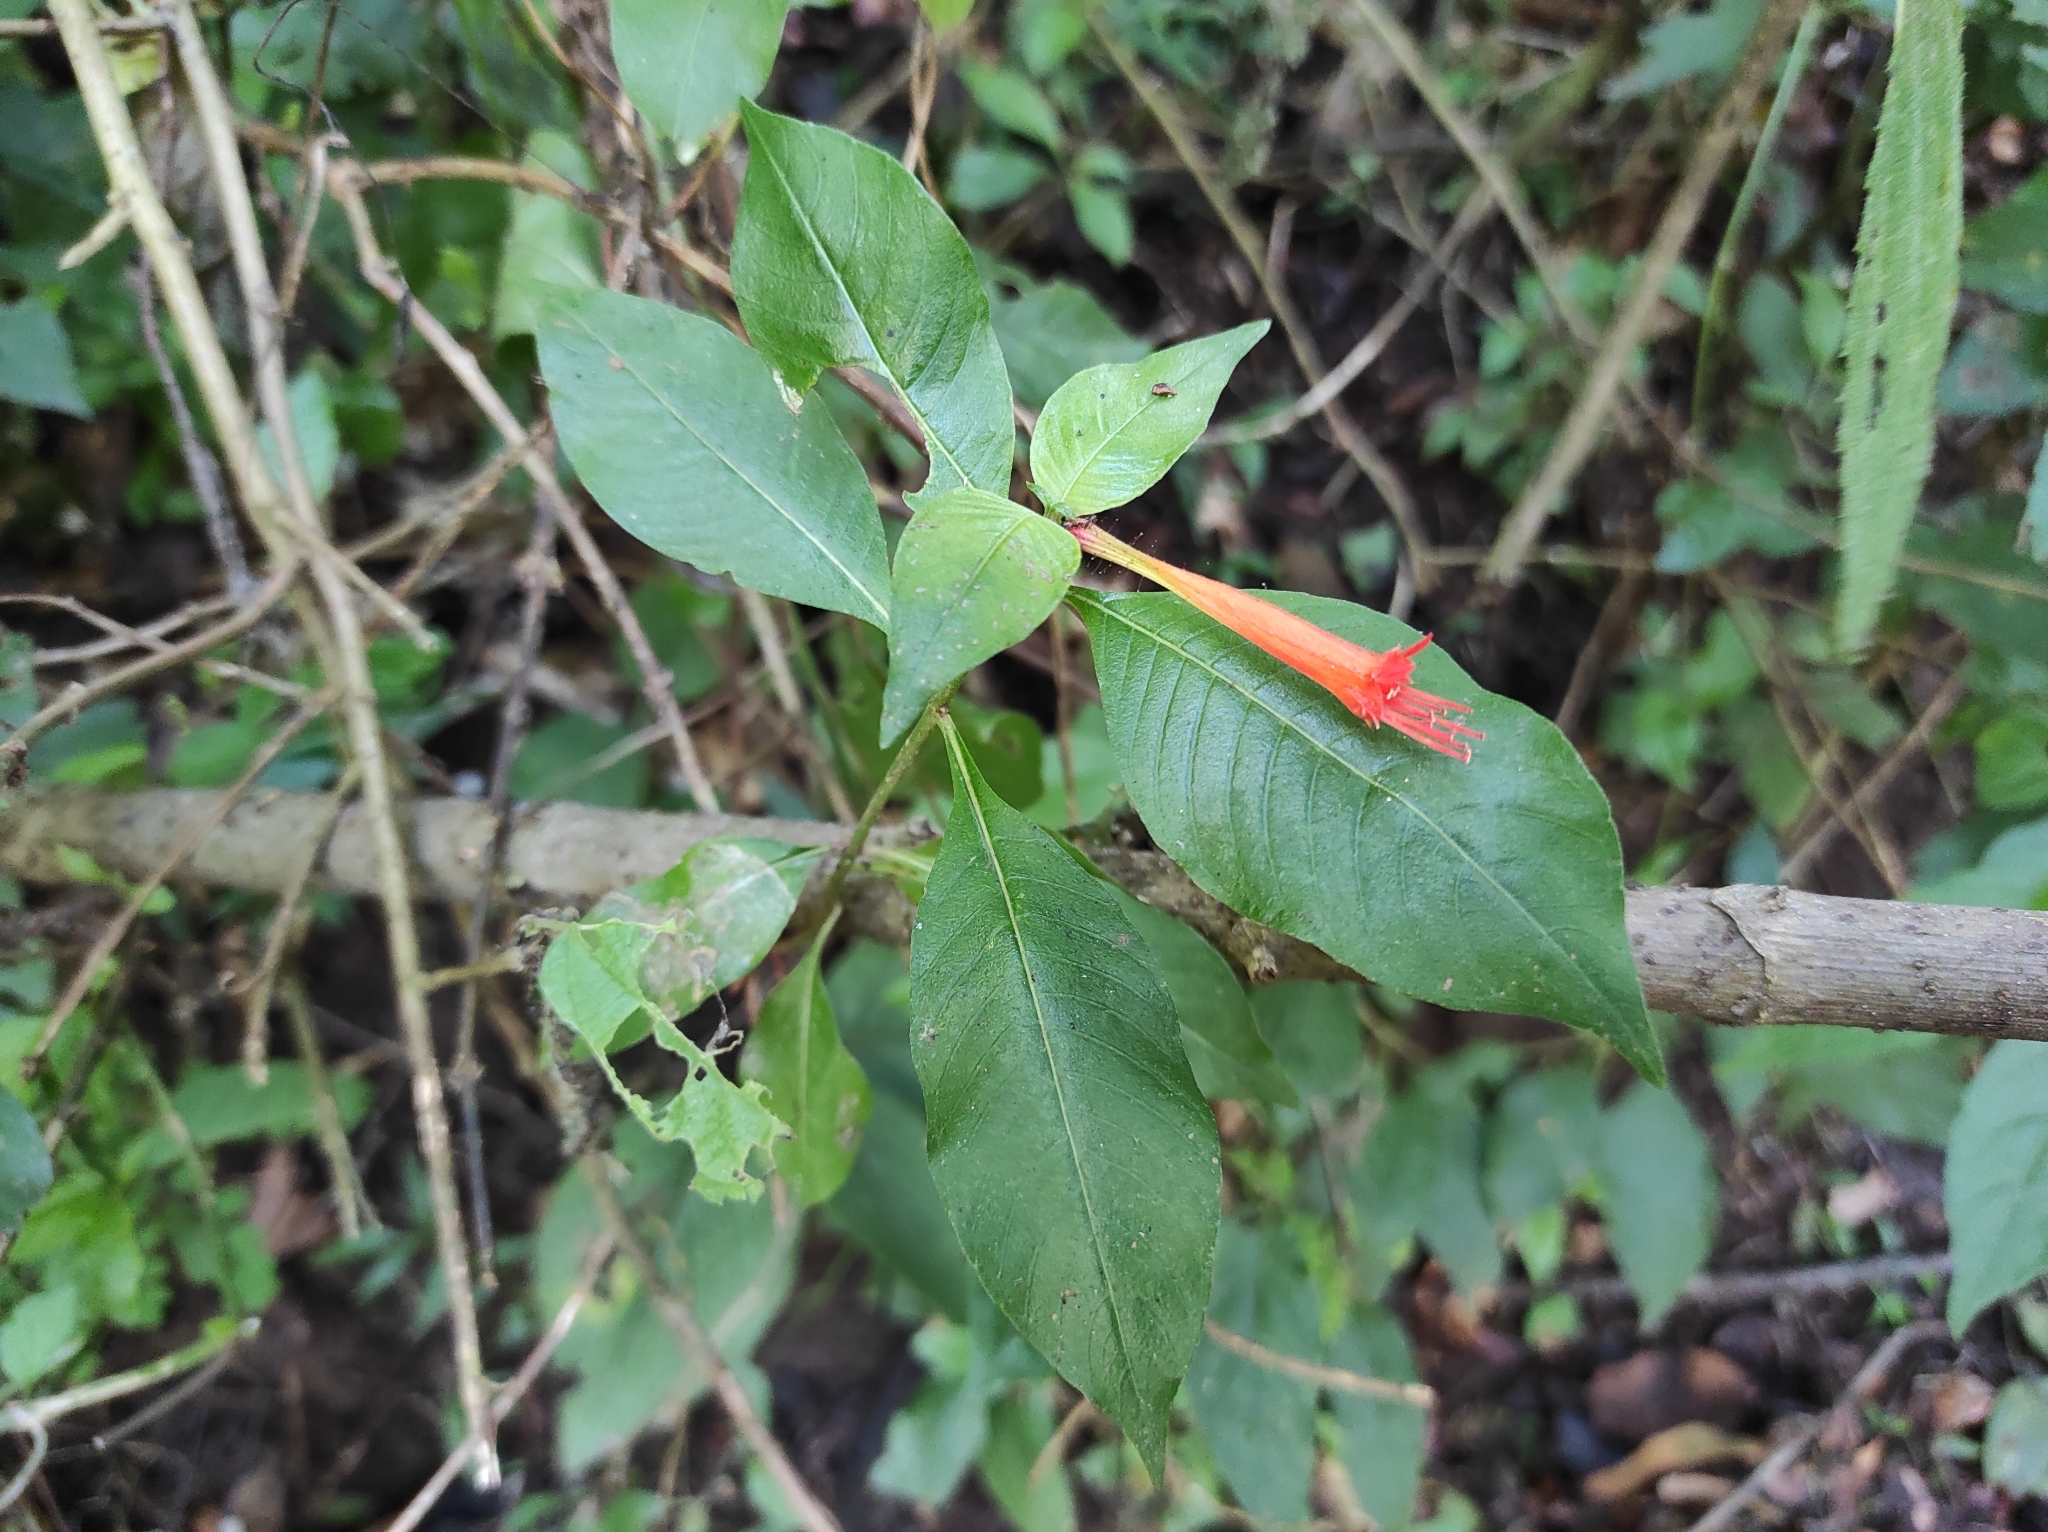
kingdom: Plantae
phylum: Tracheophyta
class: Magnoliopsida
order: Myrtales
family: Lythraceae
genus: Cuphea
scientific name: Cuphea appendiculata
